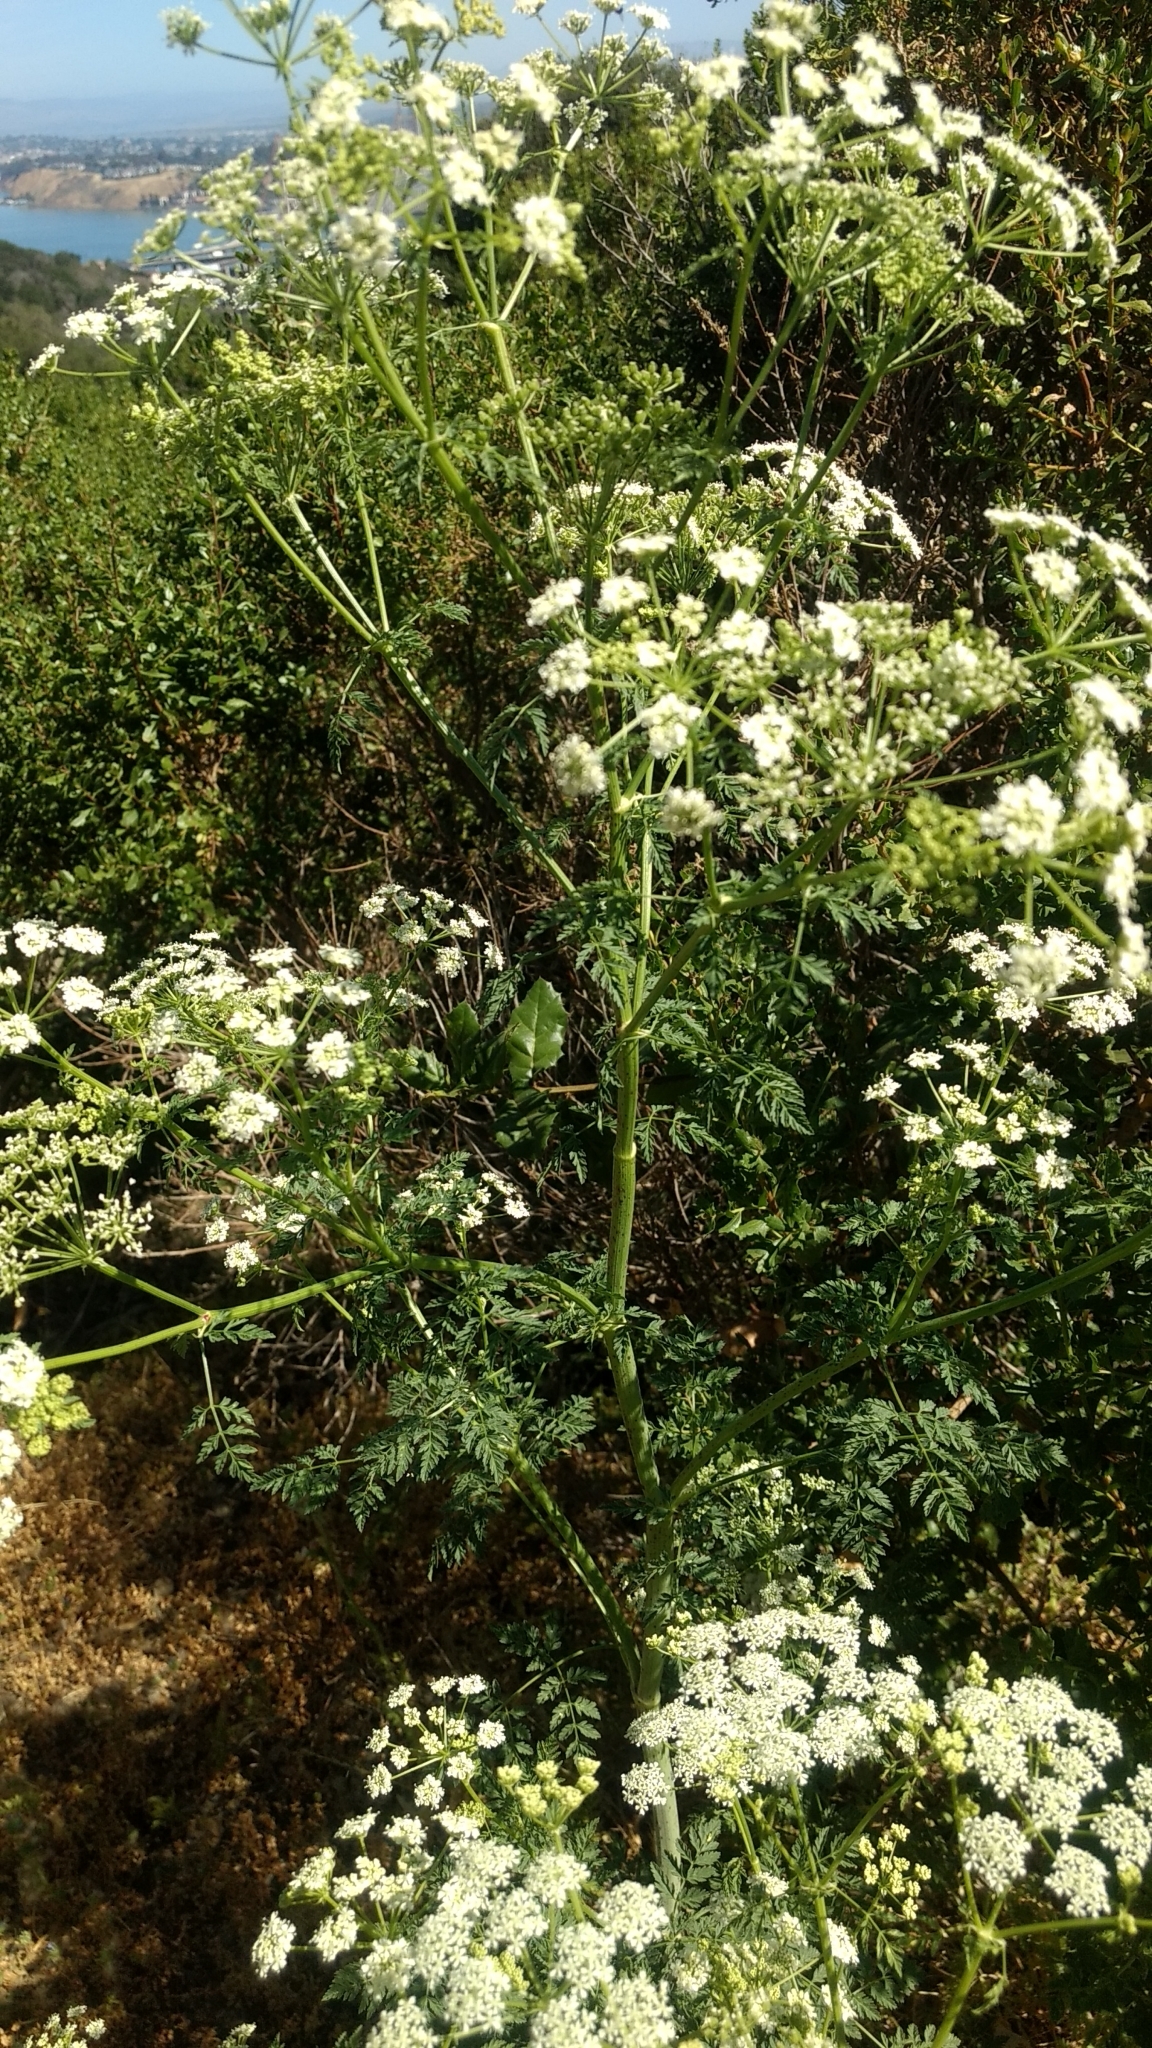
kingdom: Plantae
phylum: Tracheophyta
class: Magnoliopsida
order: Apiales
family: Apiaceae
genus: Conium
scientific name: Conium maculatum
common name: Hemlock
